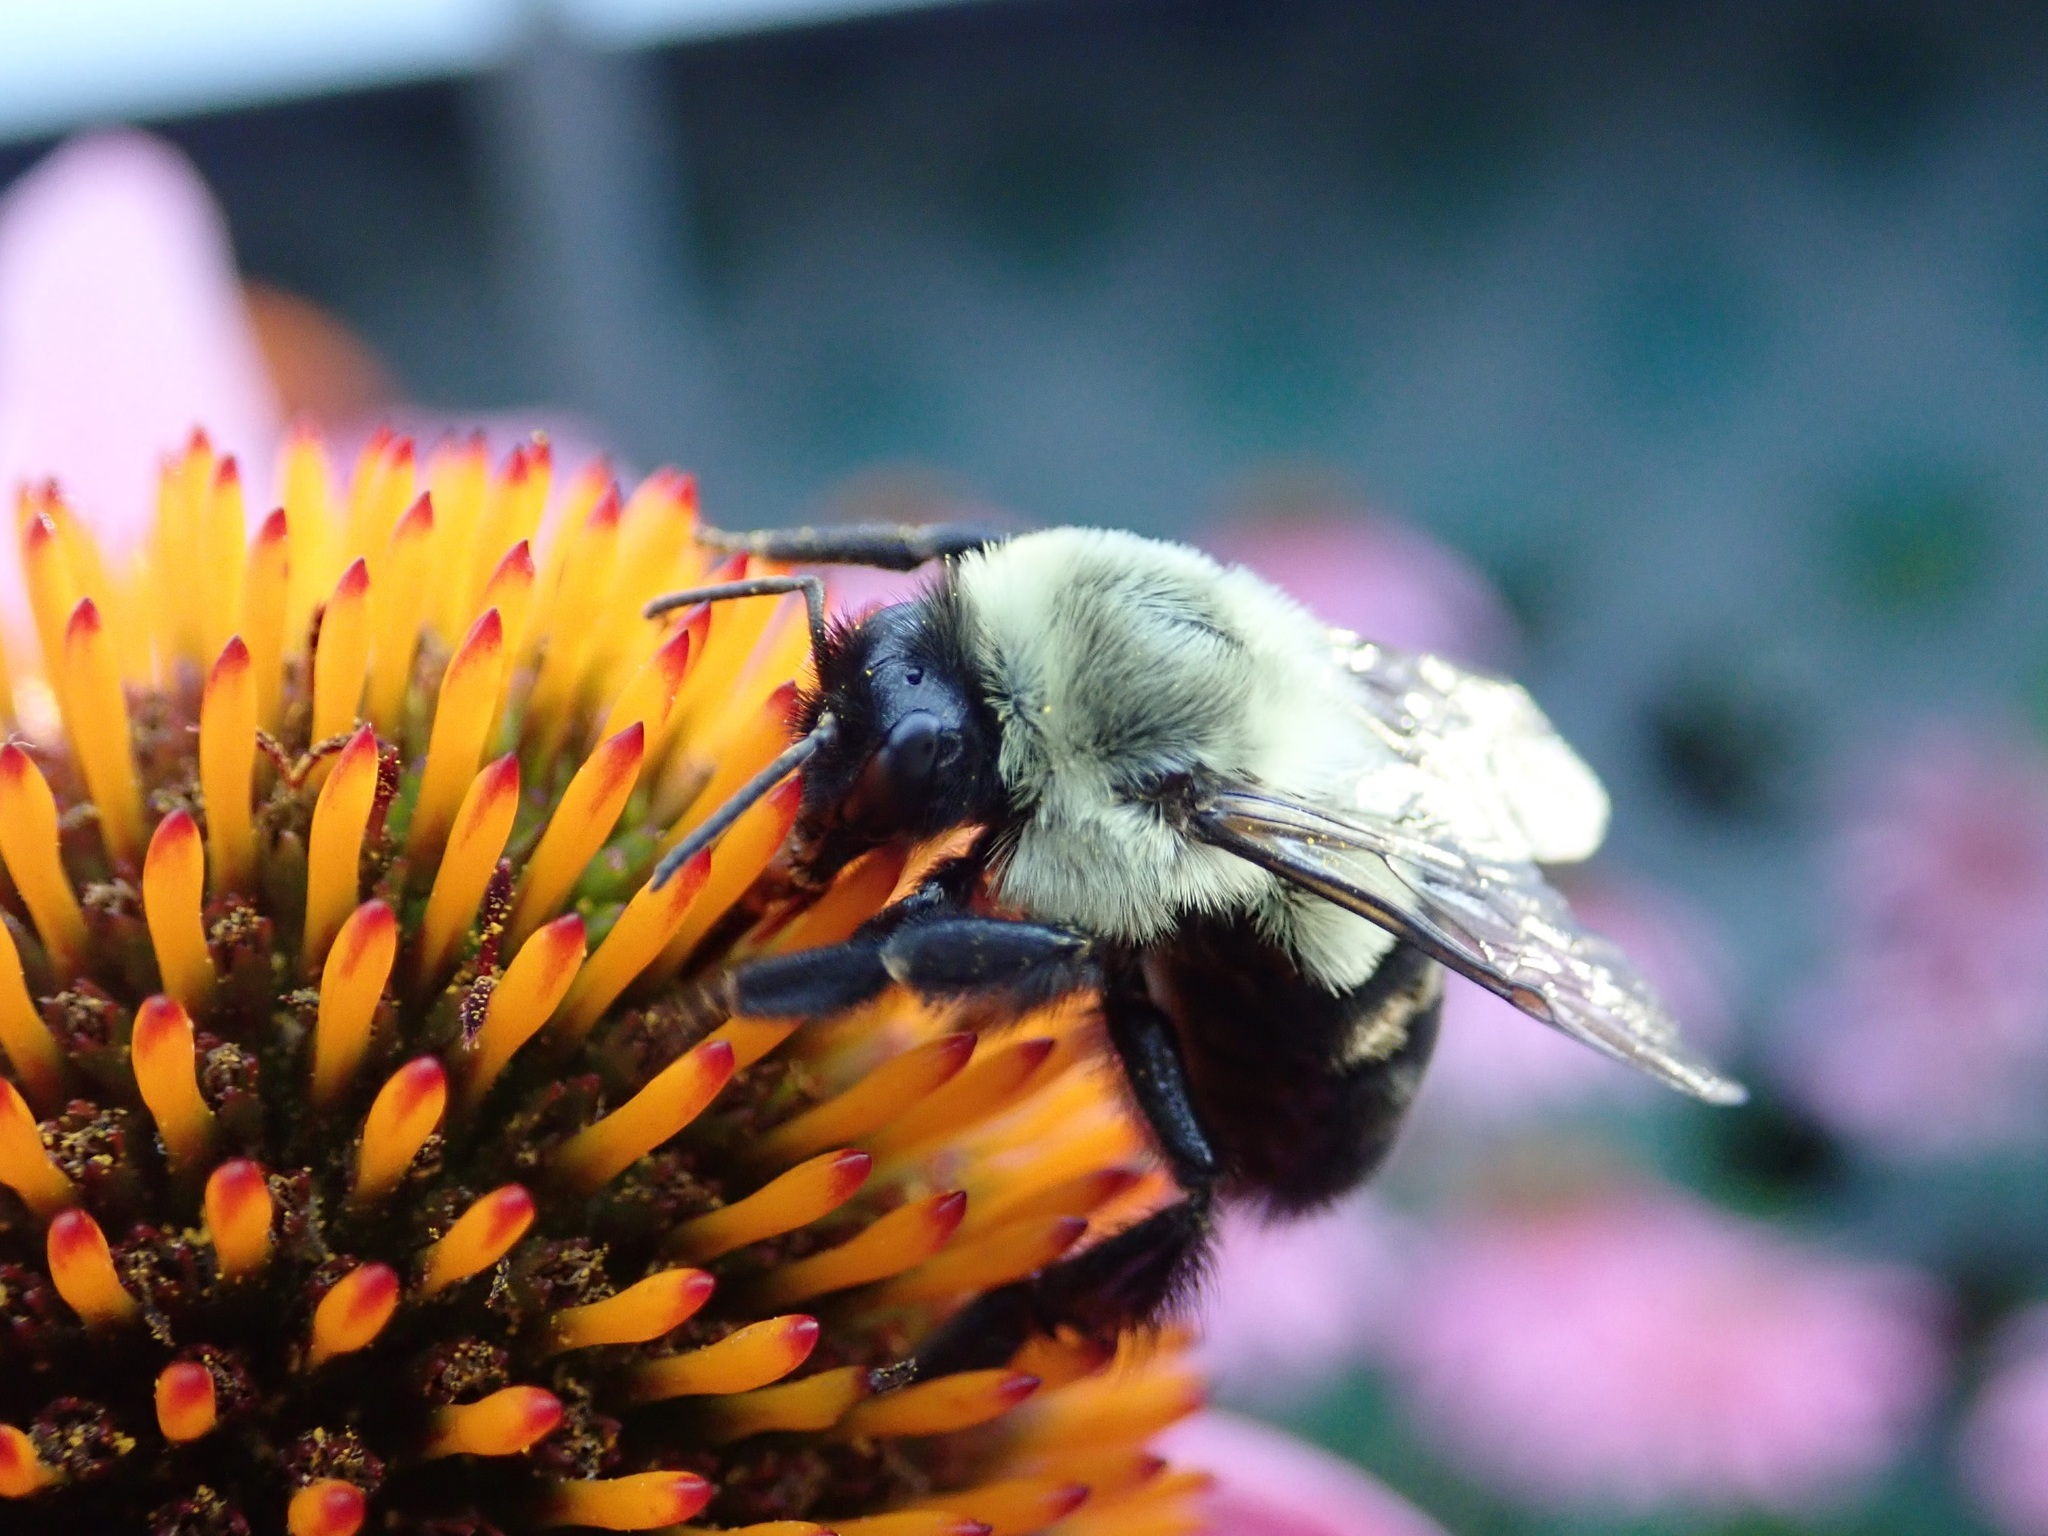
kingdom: Animalia
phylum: Arthropoda
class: Insecta
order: Hymenoptera
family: Apidae
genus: Bombus
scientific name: Bombus impatiens
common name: Common eastern bumble bee
